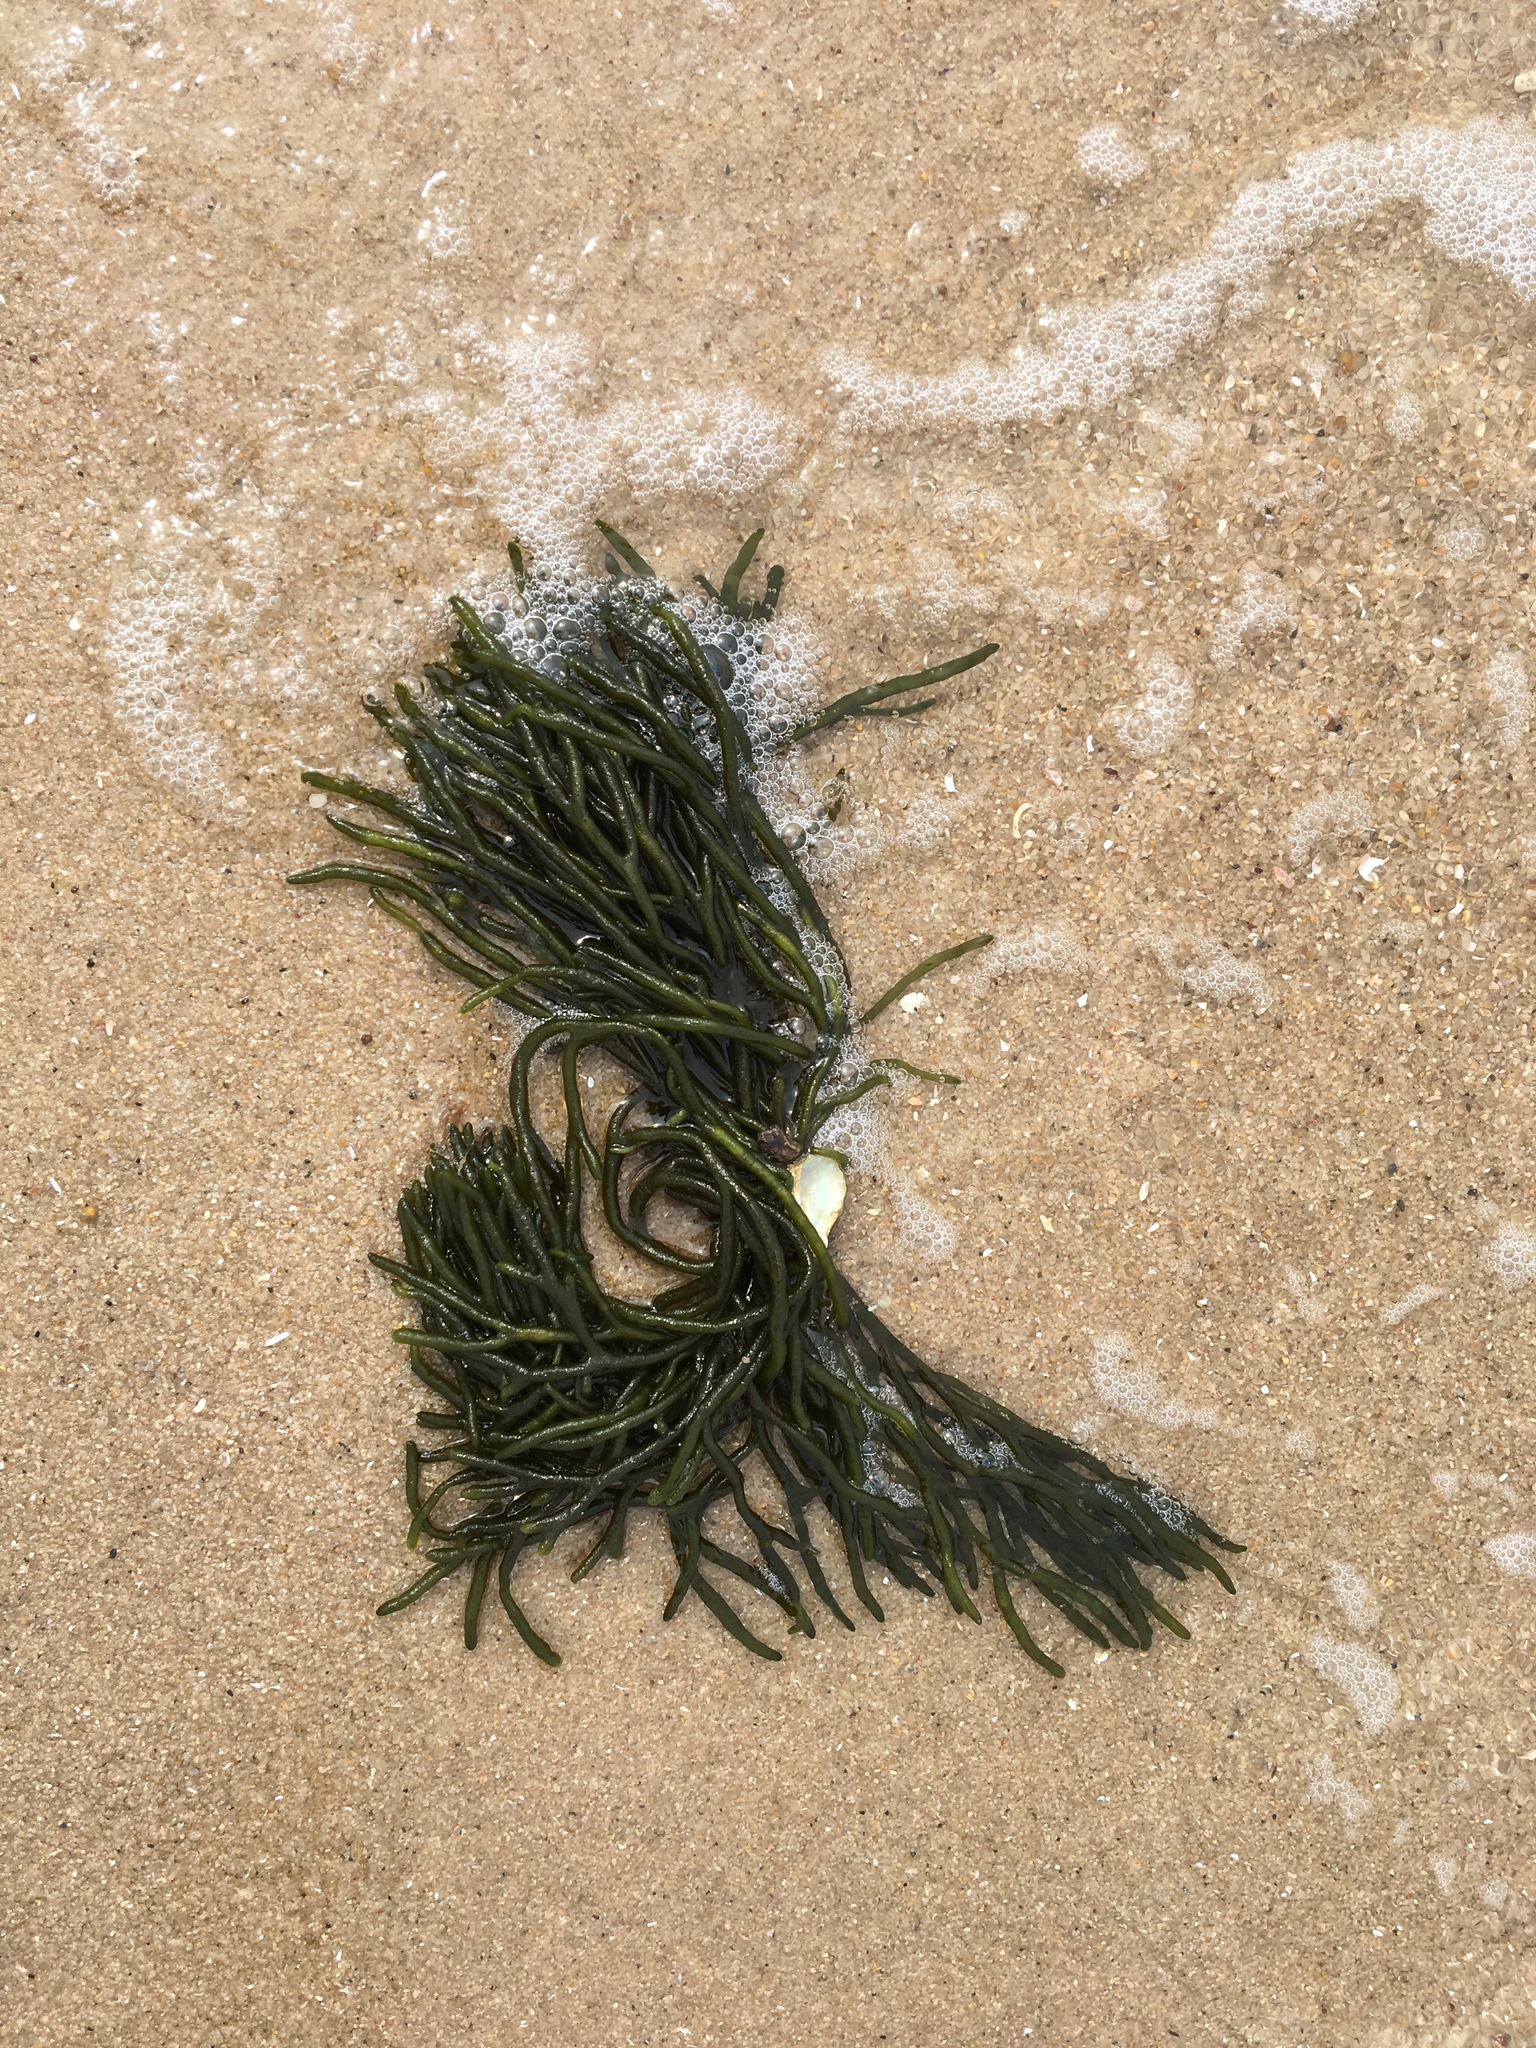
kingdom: Plantae
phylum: Chlorophyta
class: Ulvophyceae
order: Bryopsidales
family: Codiaceae
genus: Codium
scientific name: Codium fragile
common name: Dead man's fingers
